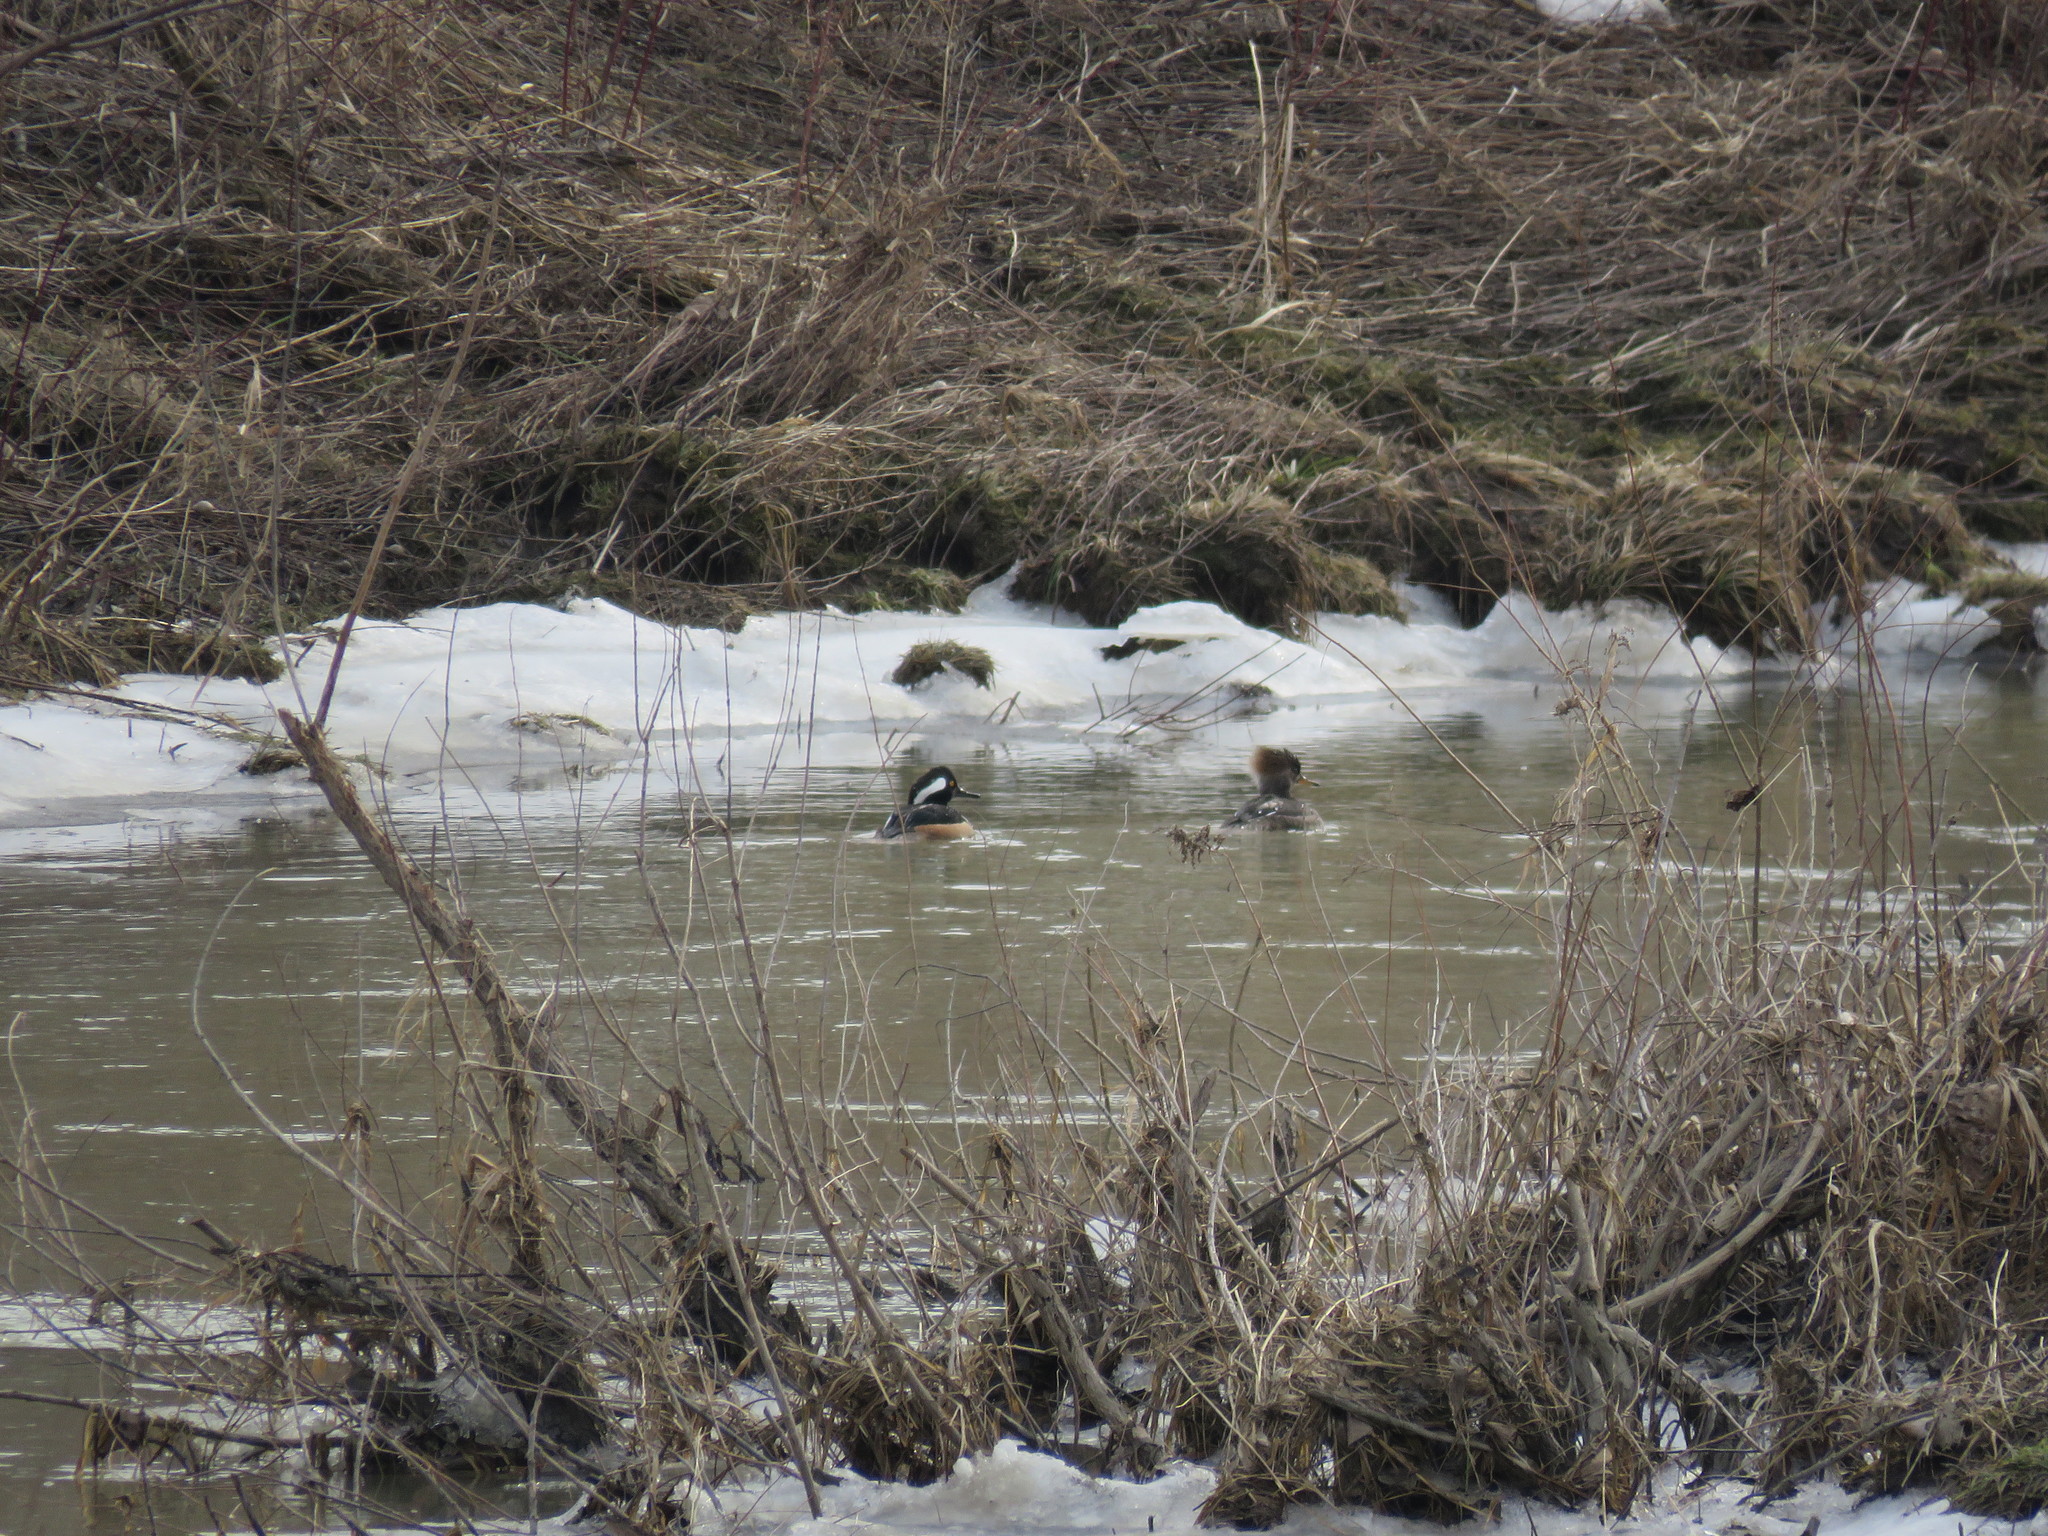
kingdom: Animalia
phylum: Chordata
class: Aves
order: Anseriformes
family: Anatidae
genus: Lophodytes
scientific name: Lophodytes cucullatus
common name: Hooded merganser
